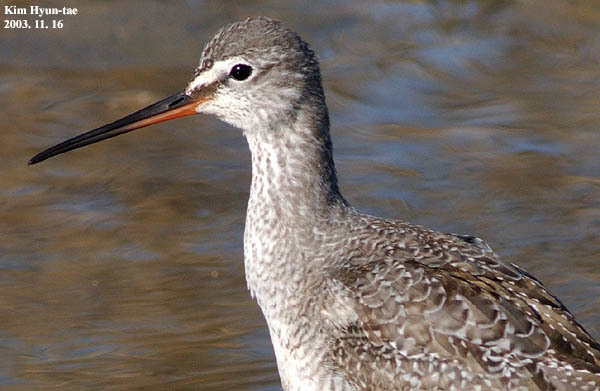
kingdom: Animalia
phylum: Chordata
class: Aves
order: Charadriiformes
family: Scolopacidae
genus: Tringa
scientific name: Tringa erythropus
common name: Spotted redshank
